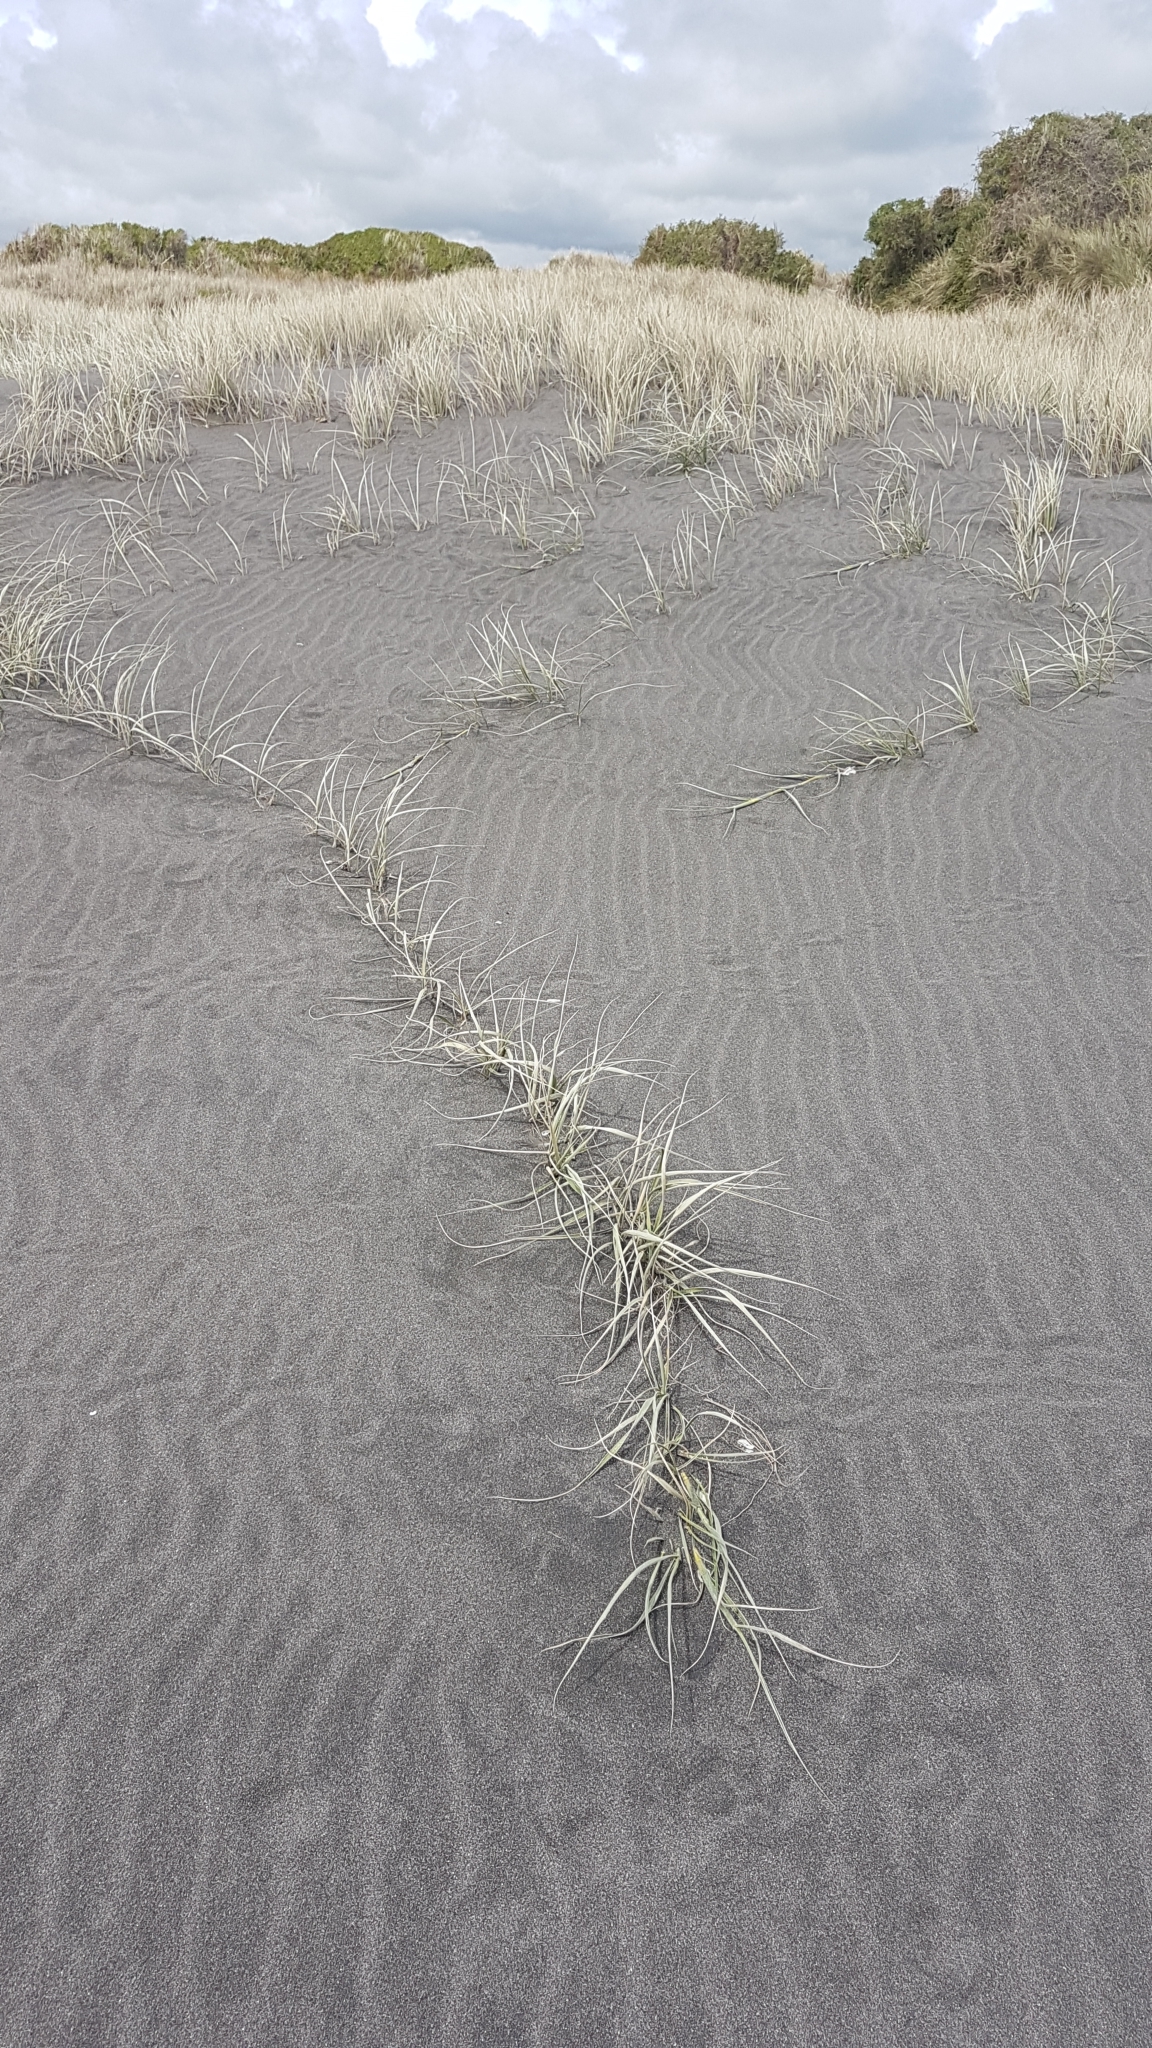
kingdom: Plantae
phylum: Tracheophyta
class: Liliopsida
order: Poales
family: Poaceae
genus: Spinifex
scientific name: Spinifex sericeus
